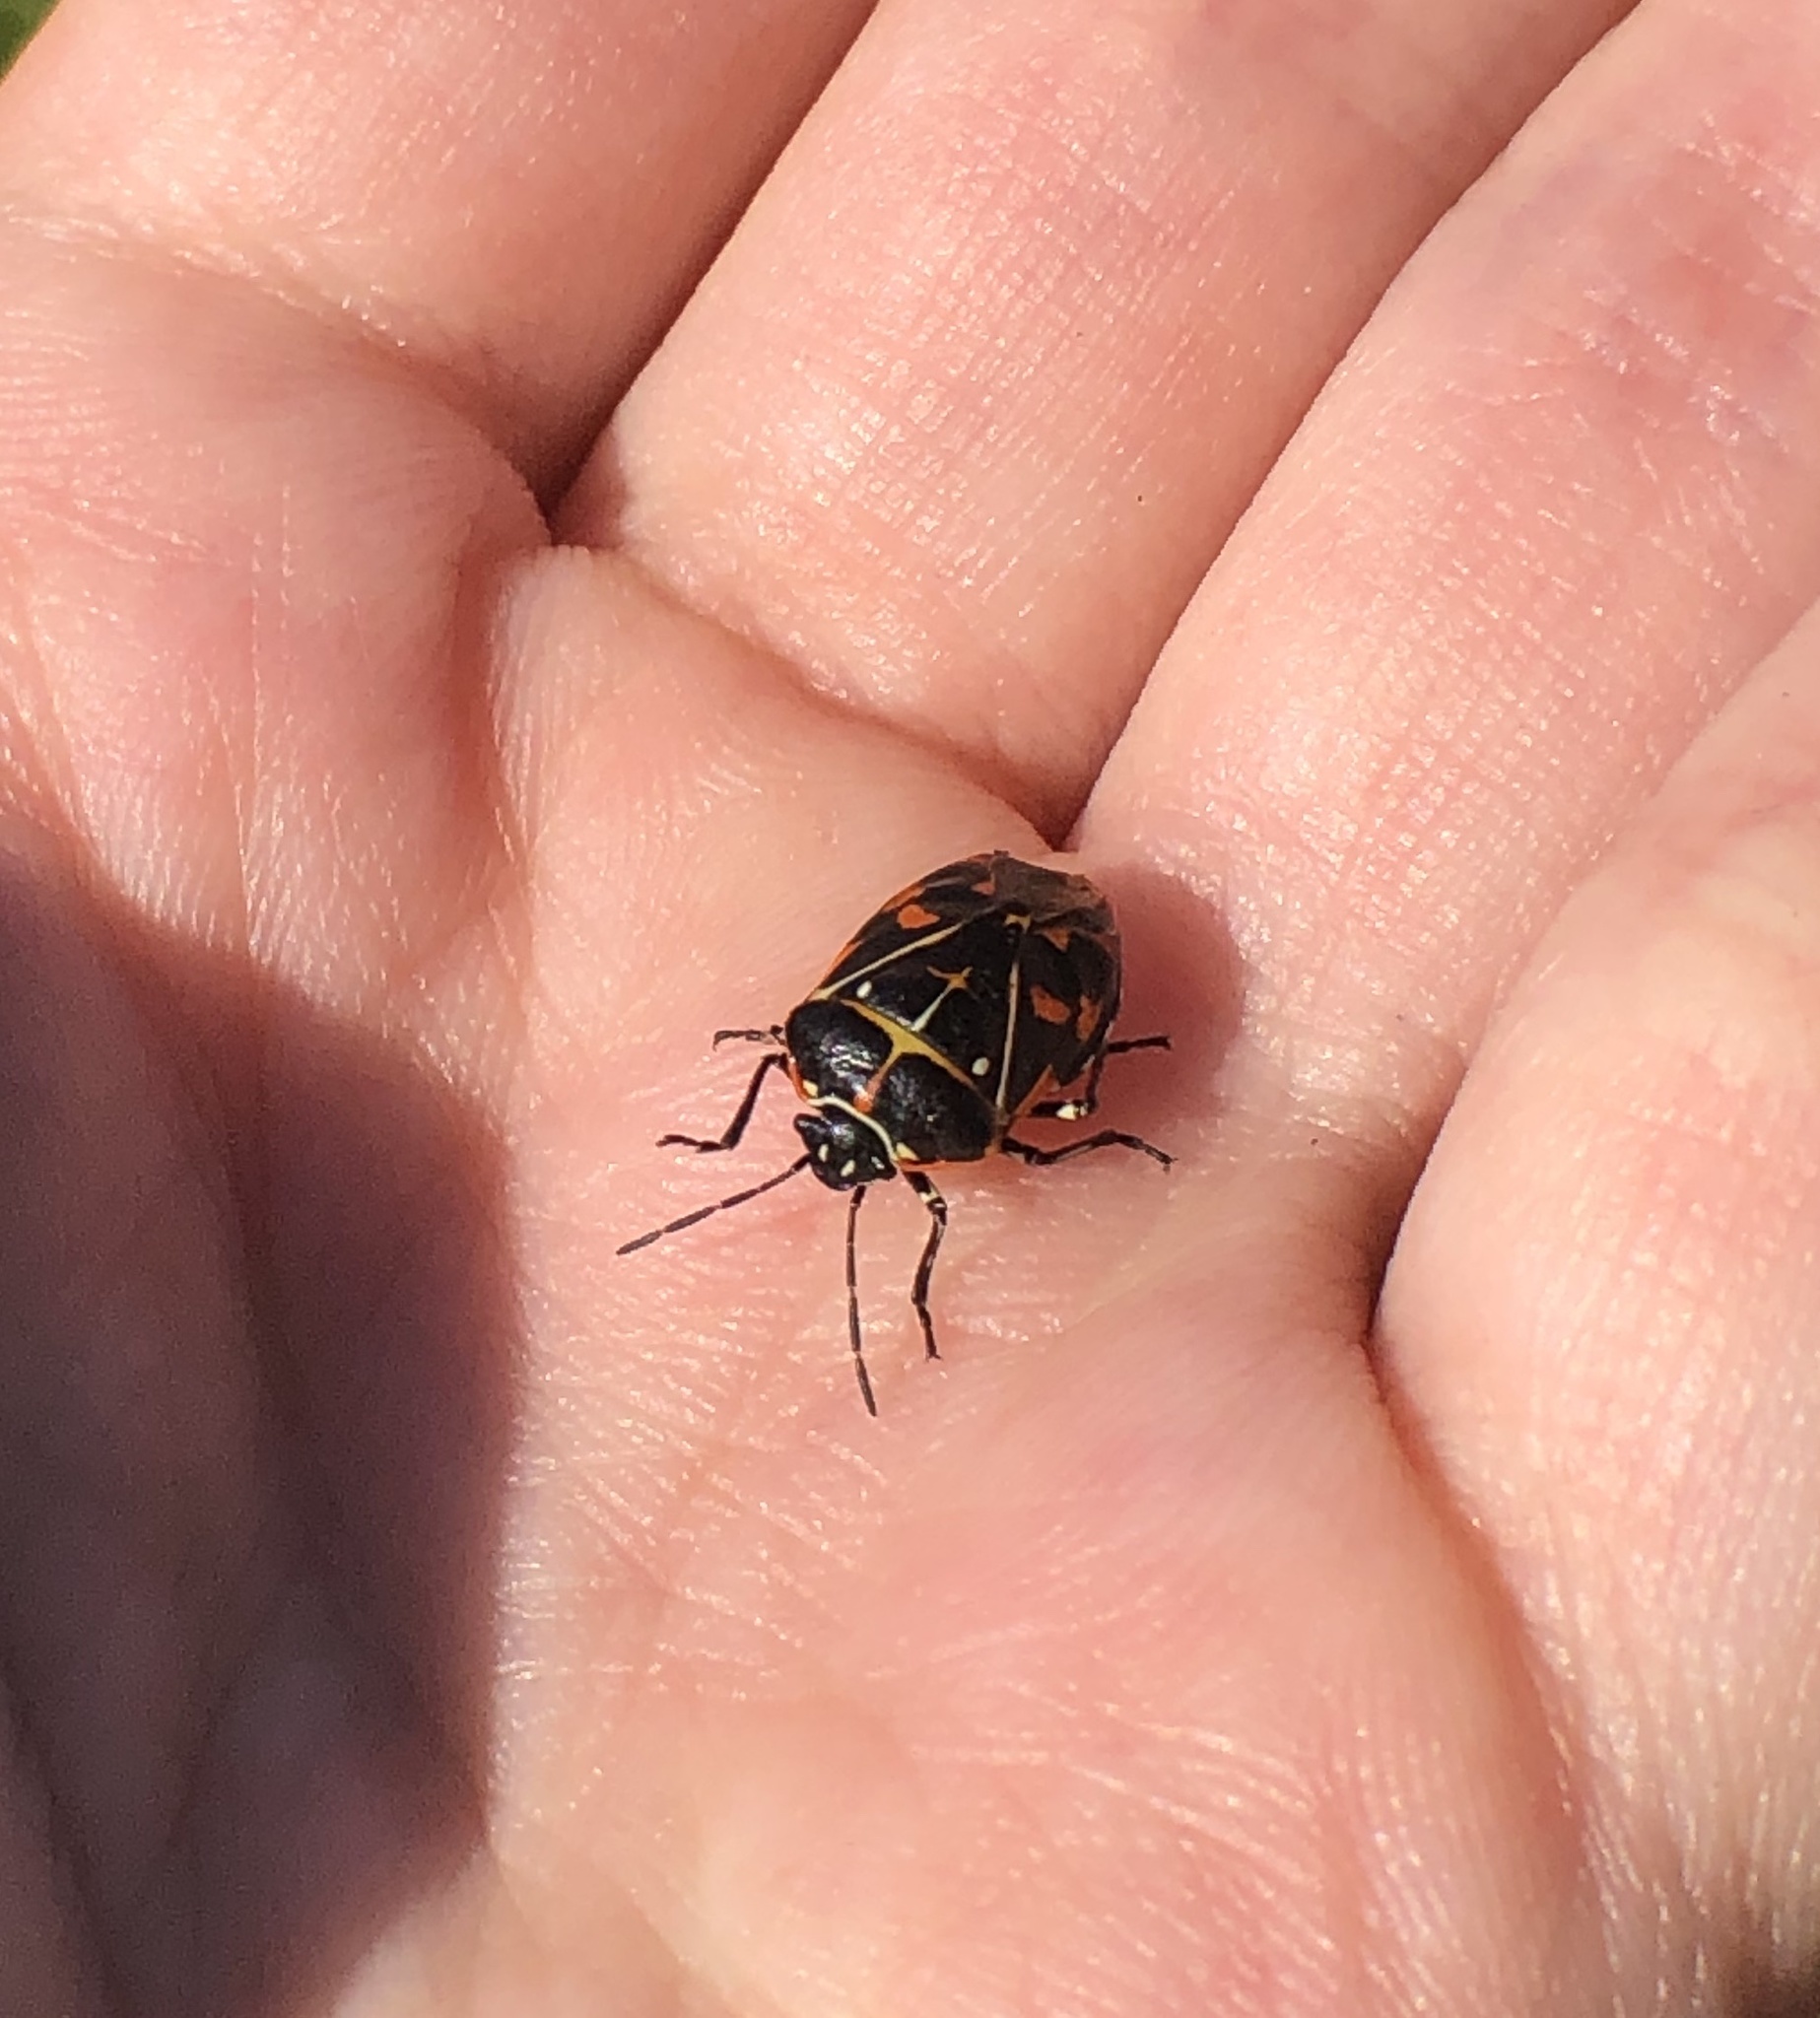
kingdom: Animalia
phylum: Arthropoda
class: Insecta
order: Hemiptera
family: Pentatomidae
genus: Murgantia
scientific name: Murgantia histrionica
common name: Harlequin bug
